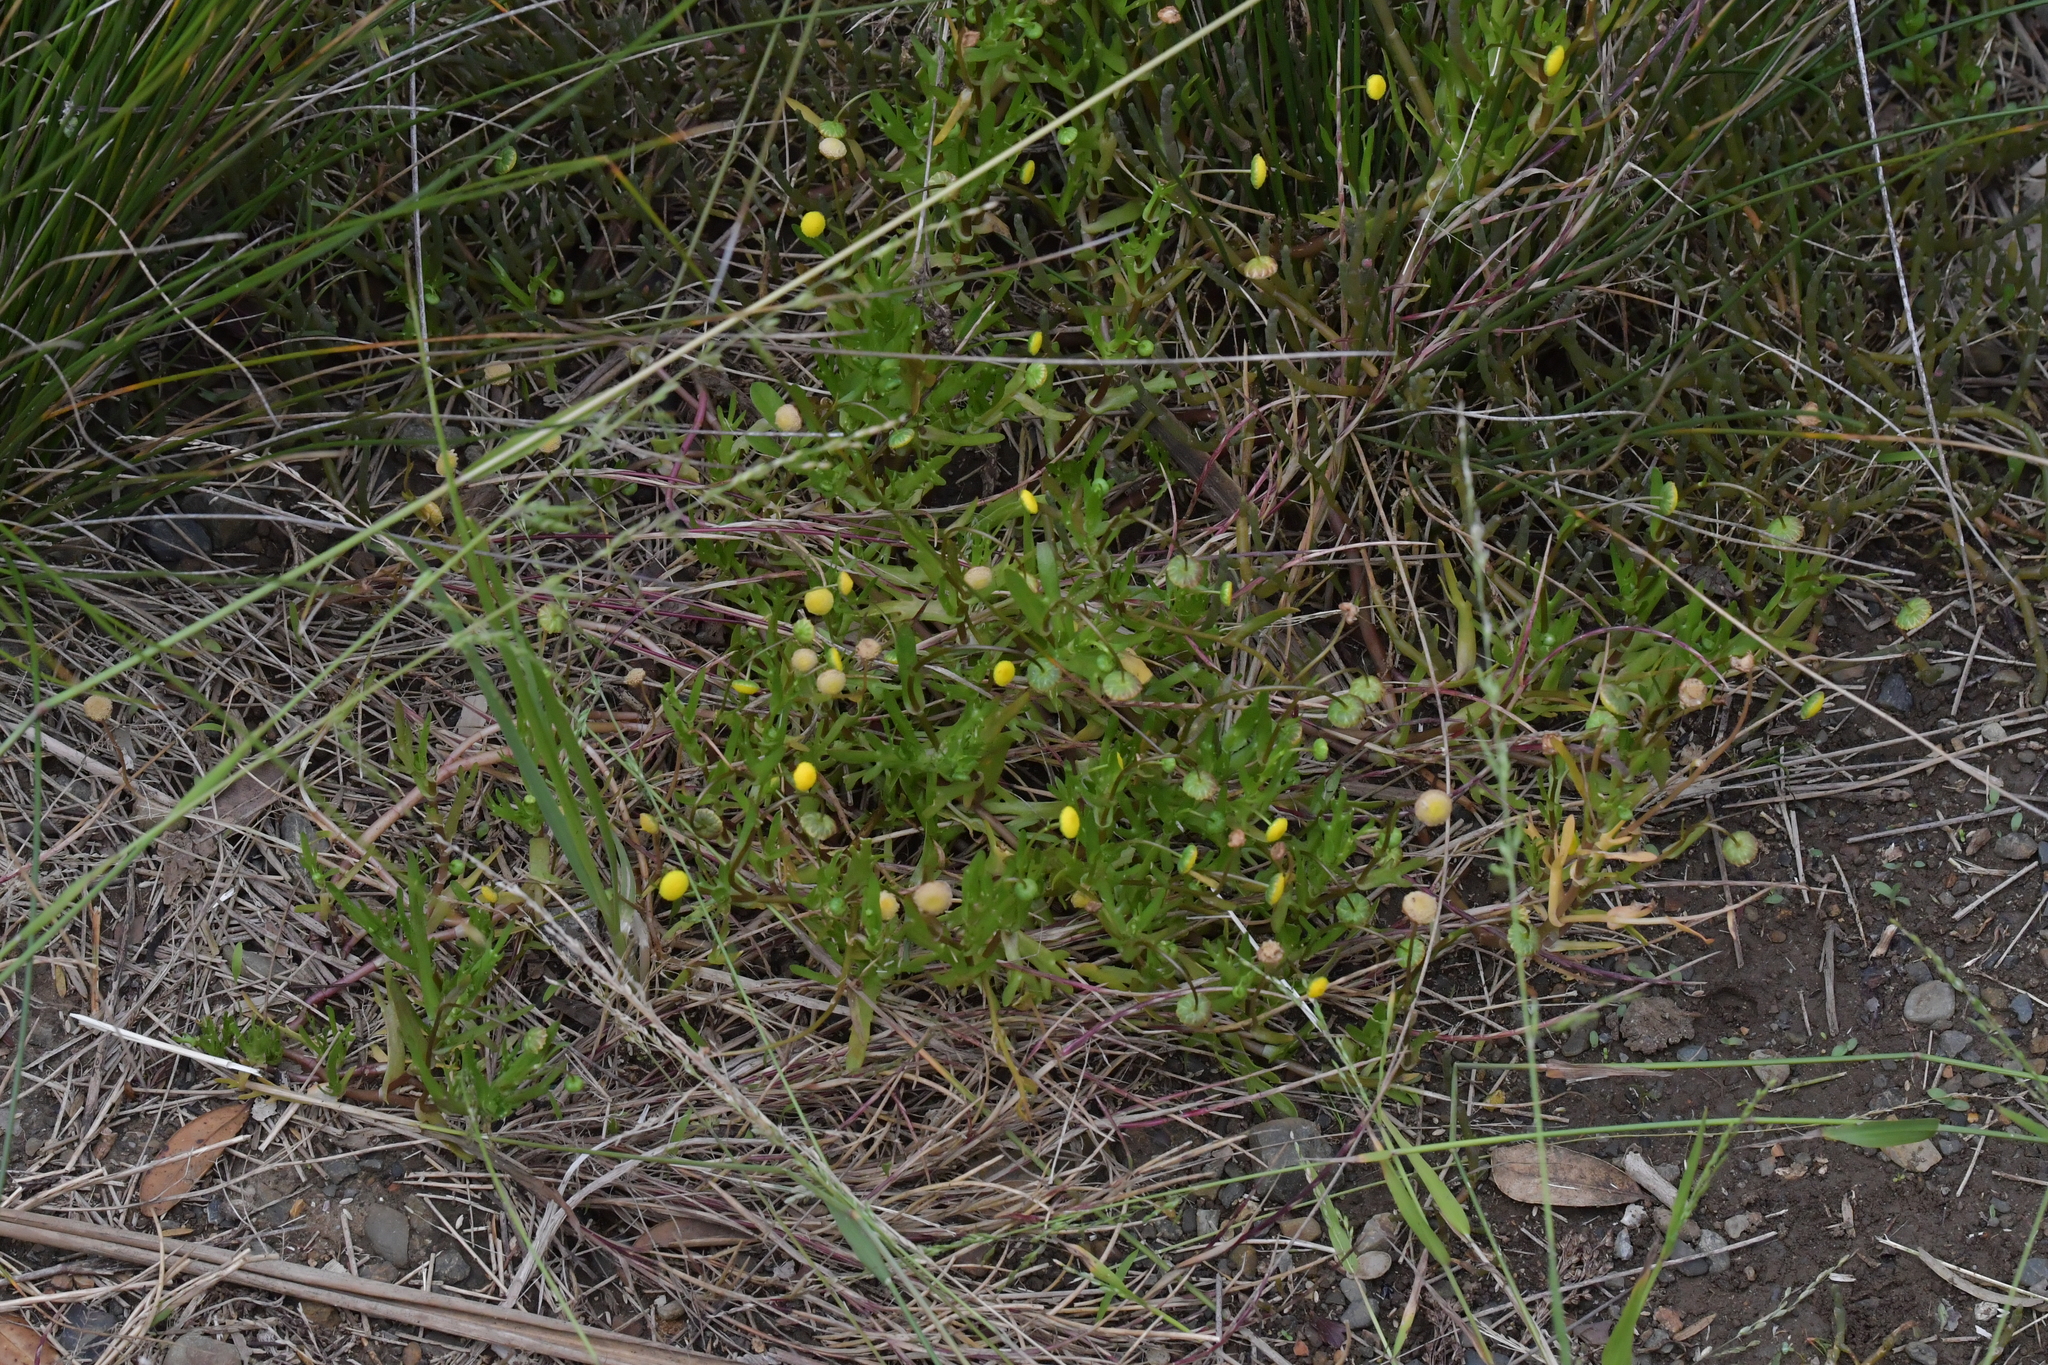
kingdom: Plantae
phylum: Tracheophyta
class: Magnoliopsida
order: Asterales
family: Asteraceae
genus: Cotula
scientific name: Cotula coronopifolia
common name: Buttonweed
